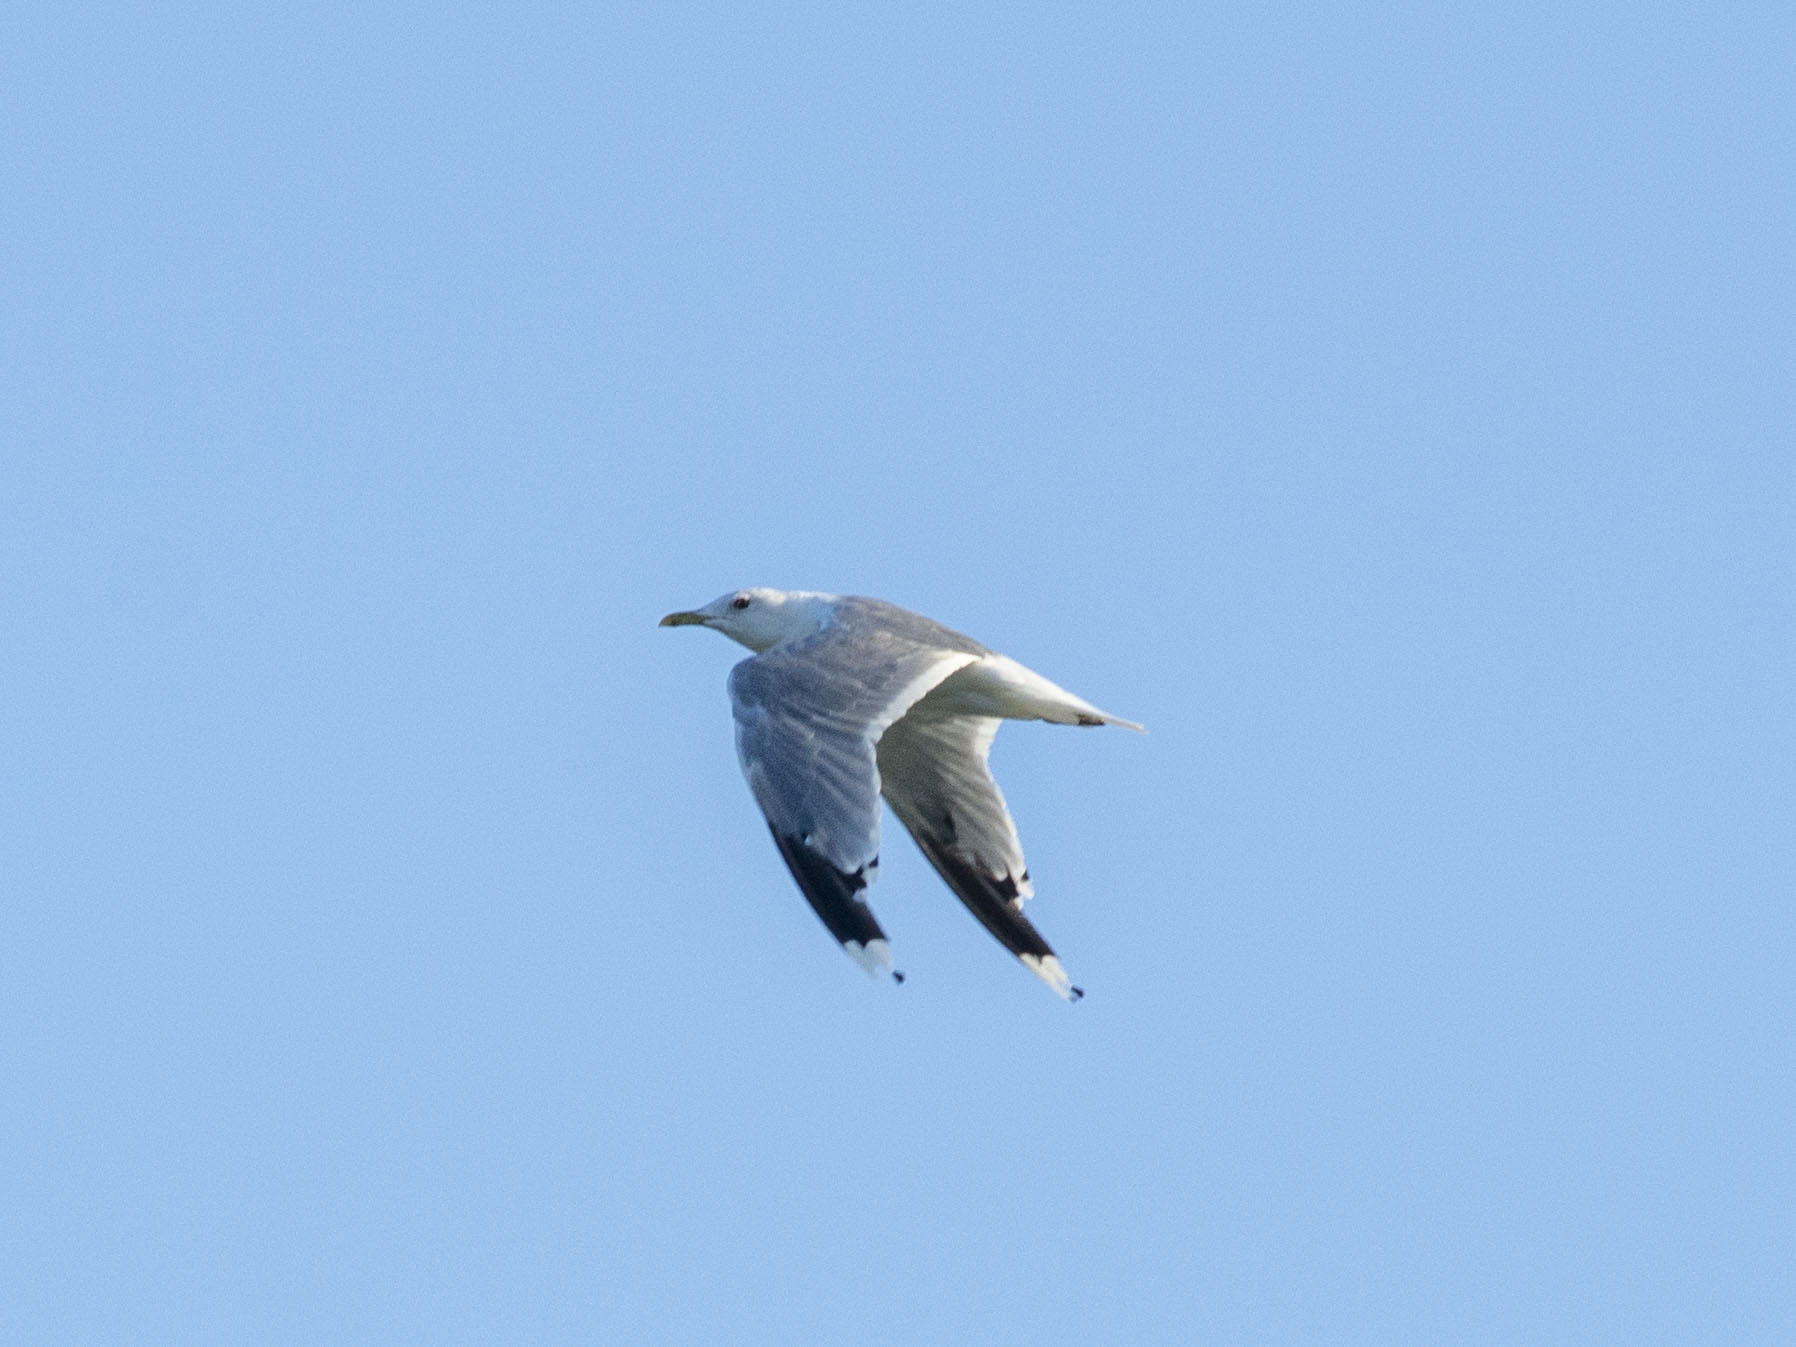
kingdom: Animalia
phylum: Chordata
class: Aves
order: Charadriiformes
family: Laridae
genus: Larus
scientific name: Larus canus
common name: Mew gull
